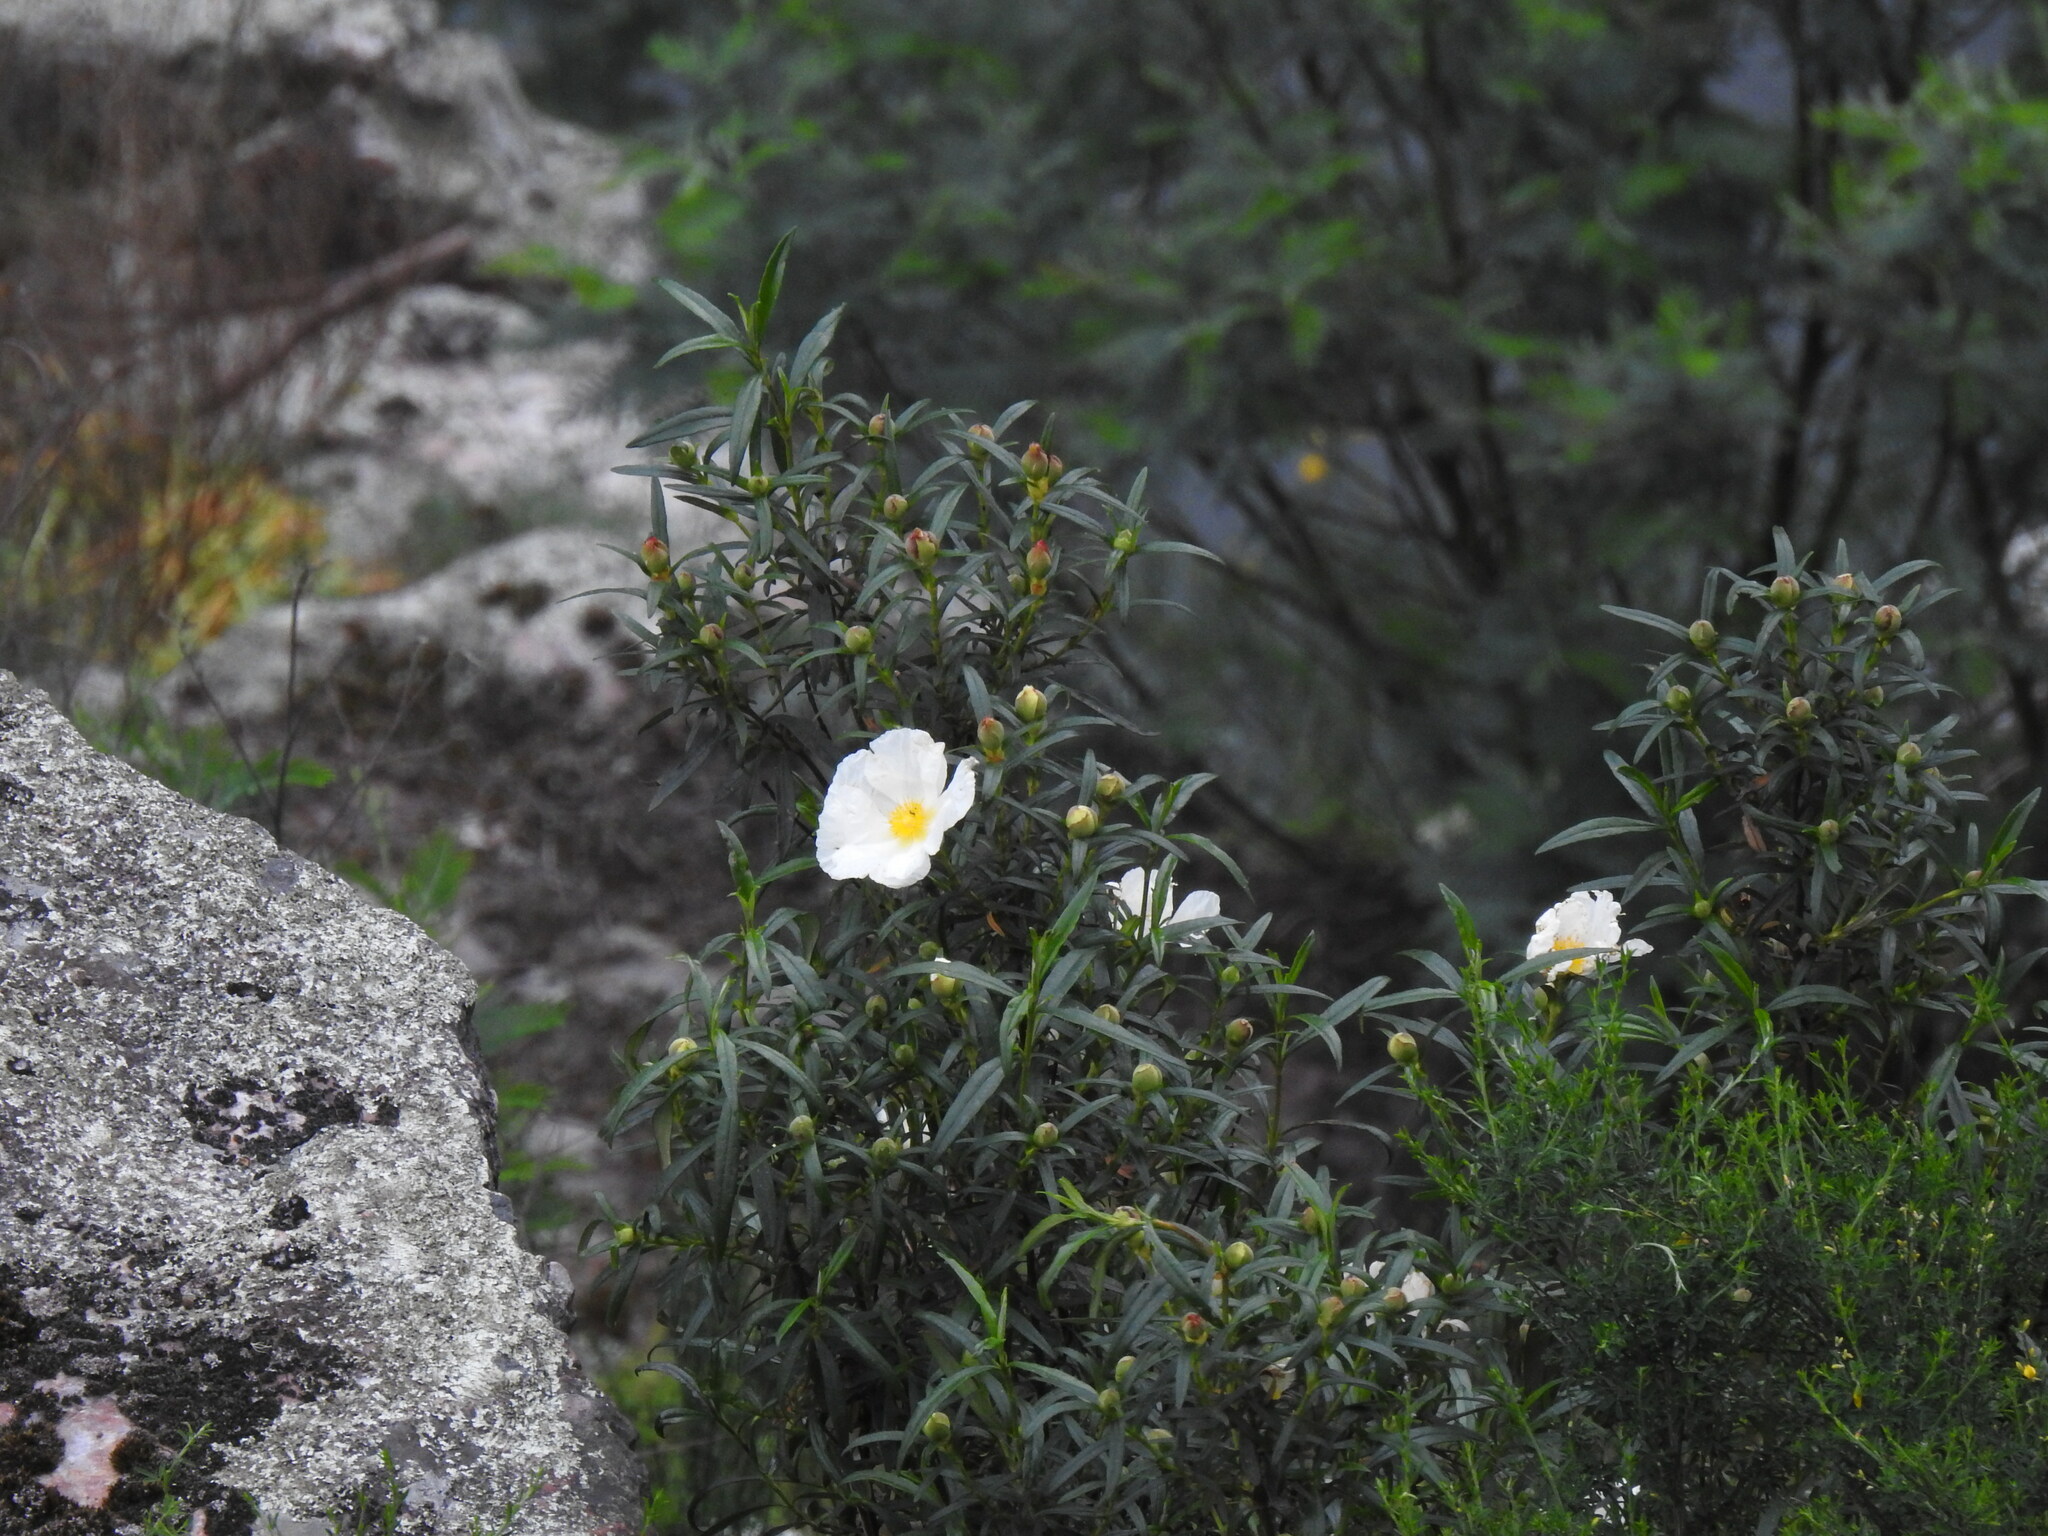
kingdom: Plantae
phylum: Tracheophyta
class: Magnoliopsida
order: Malvales
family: Cistaceae
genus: Cistus
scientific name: Cistus ladanifer
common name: Common gum cistus
